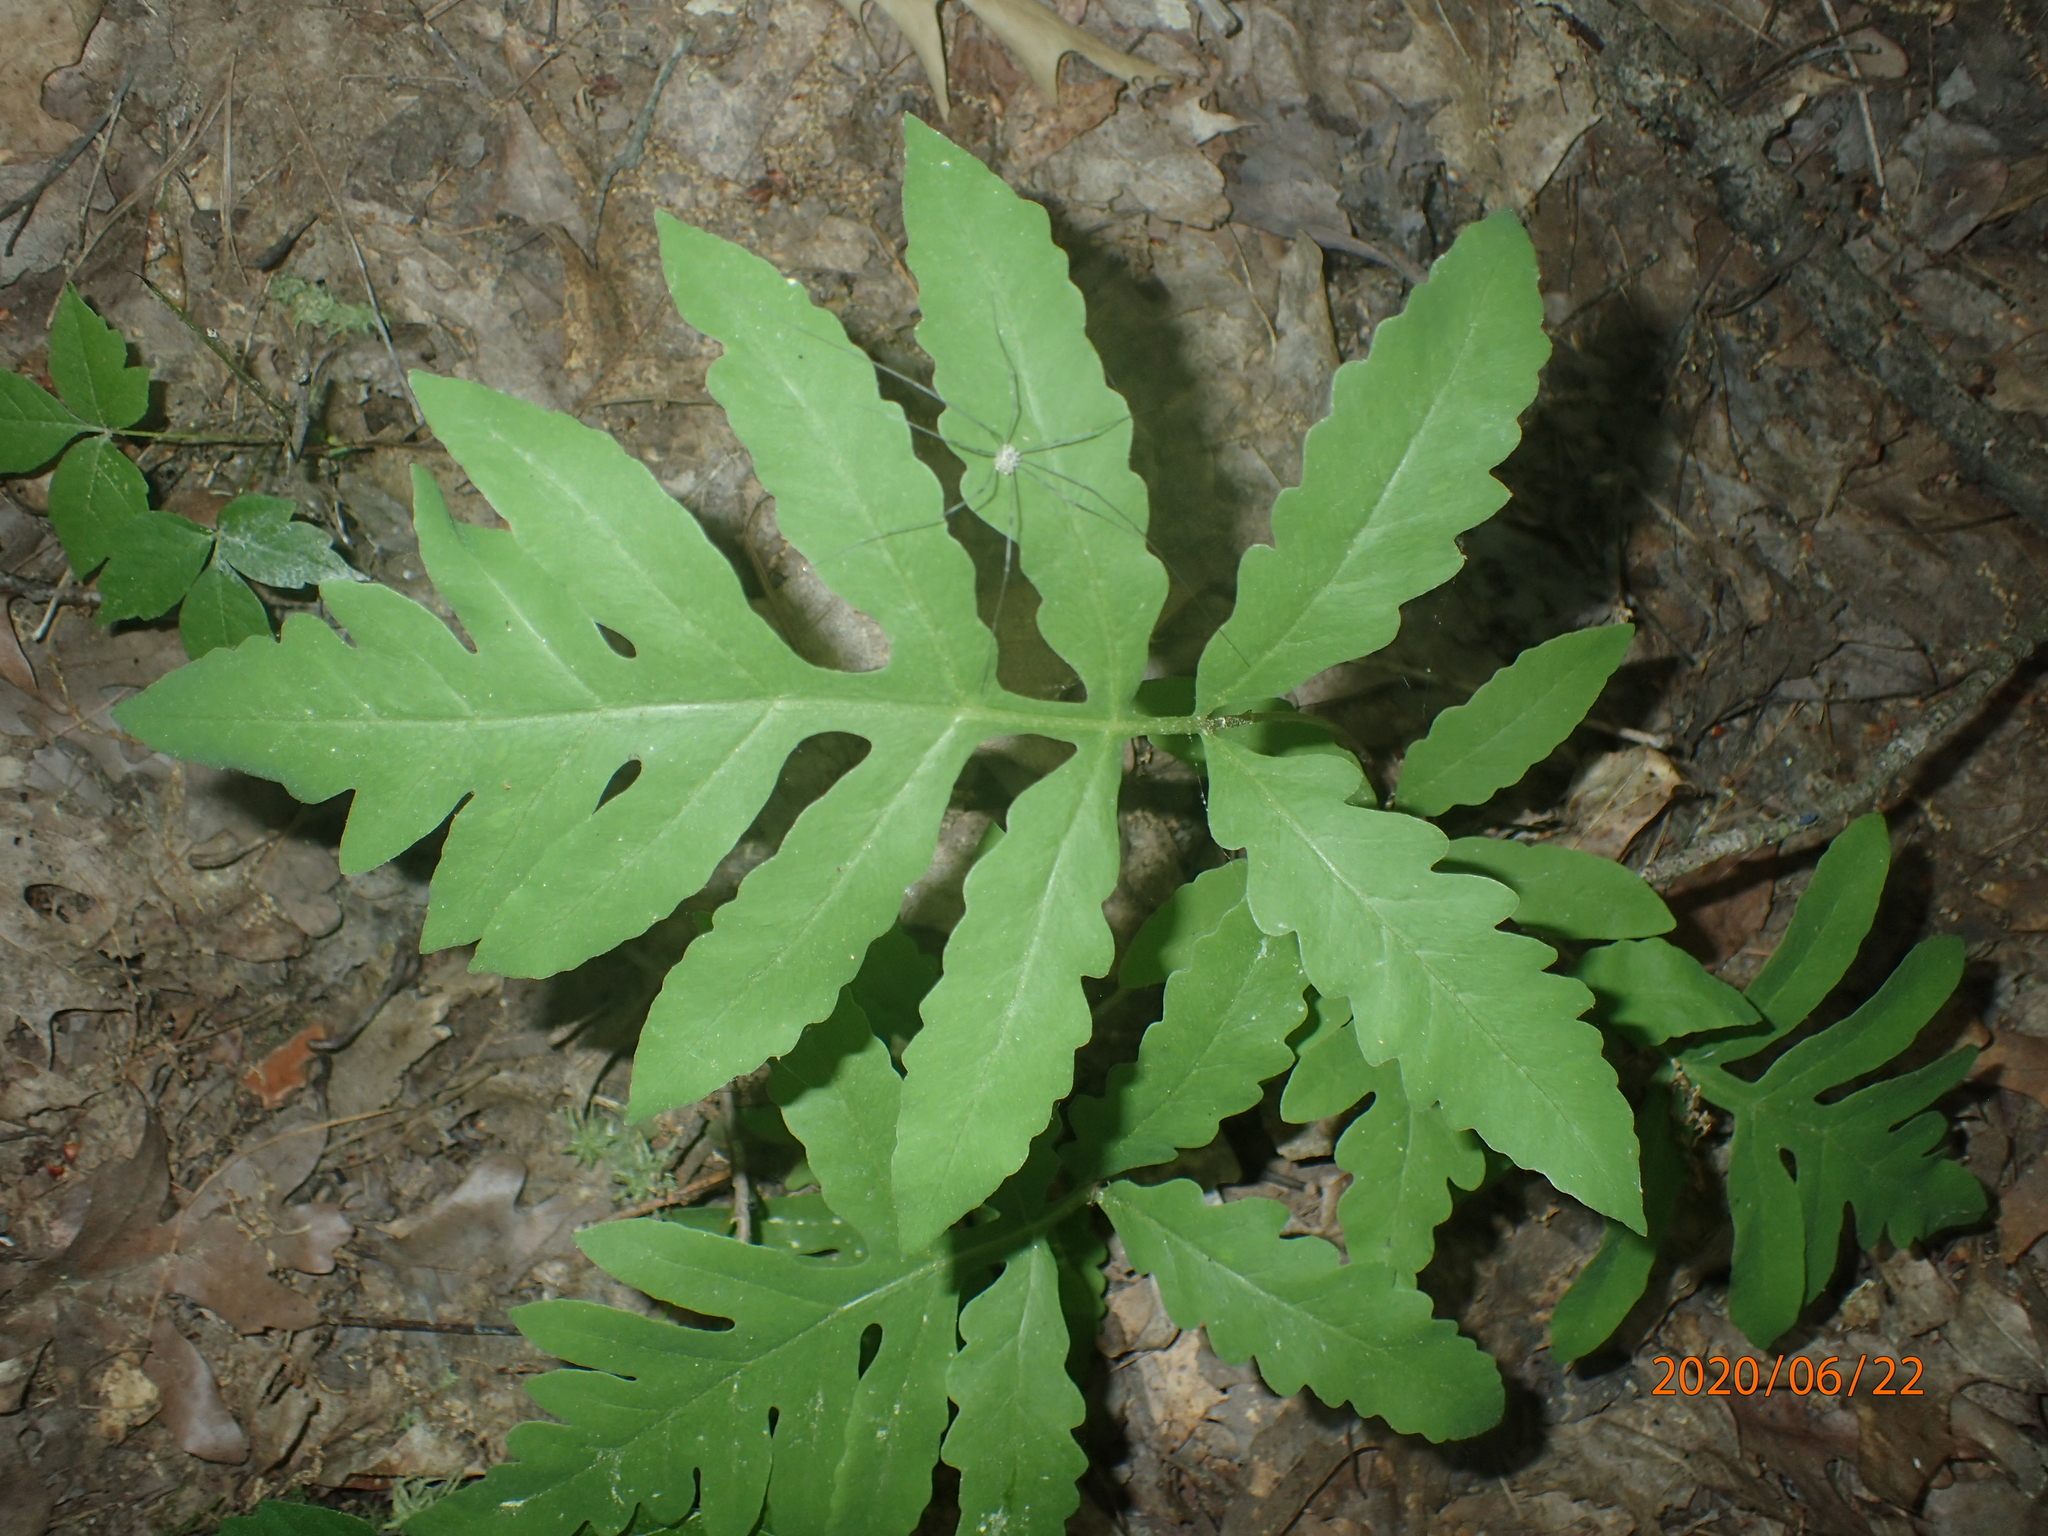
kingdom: Plantae
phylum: Tracheophyta
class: Polypodiopsida
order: Polypodiales
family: Onocleaceae
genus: Onoclea
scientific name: Onoclea sensibilis
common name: Sensitive fern
